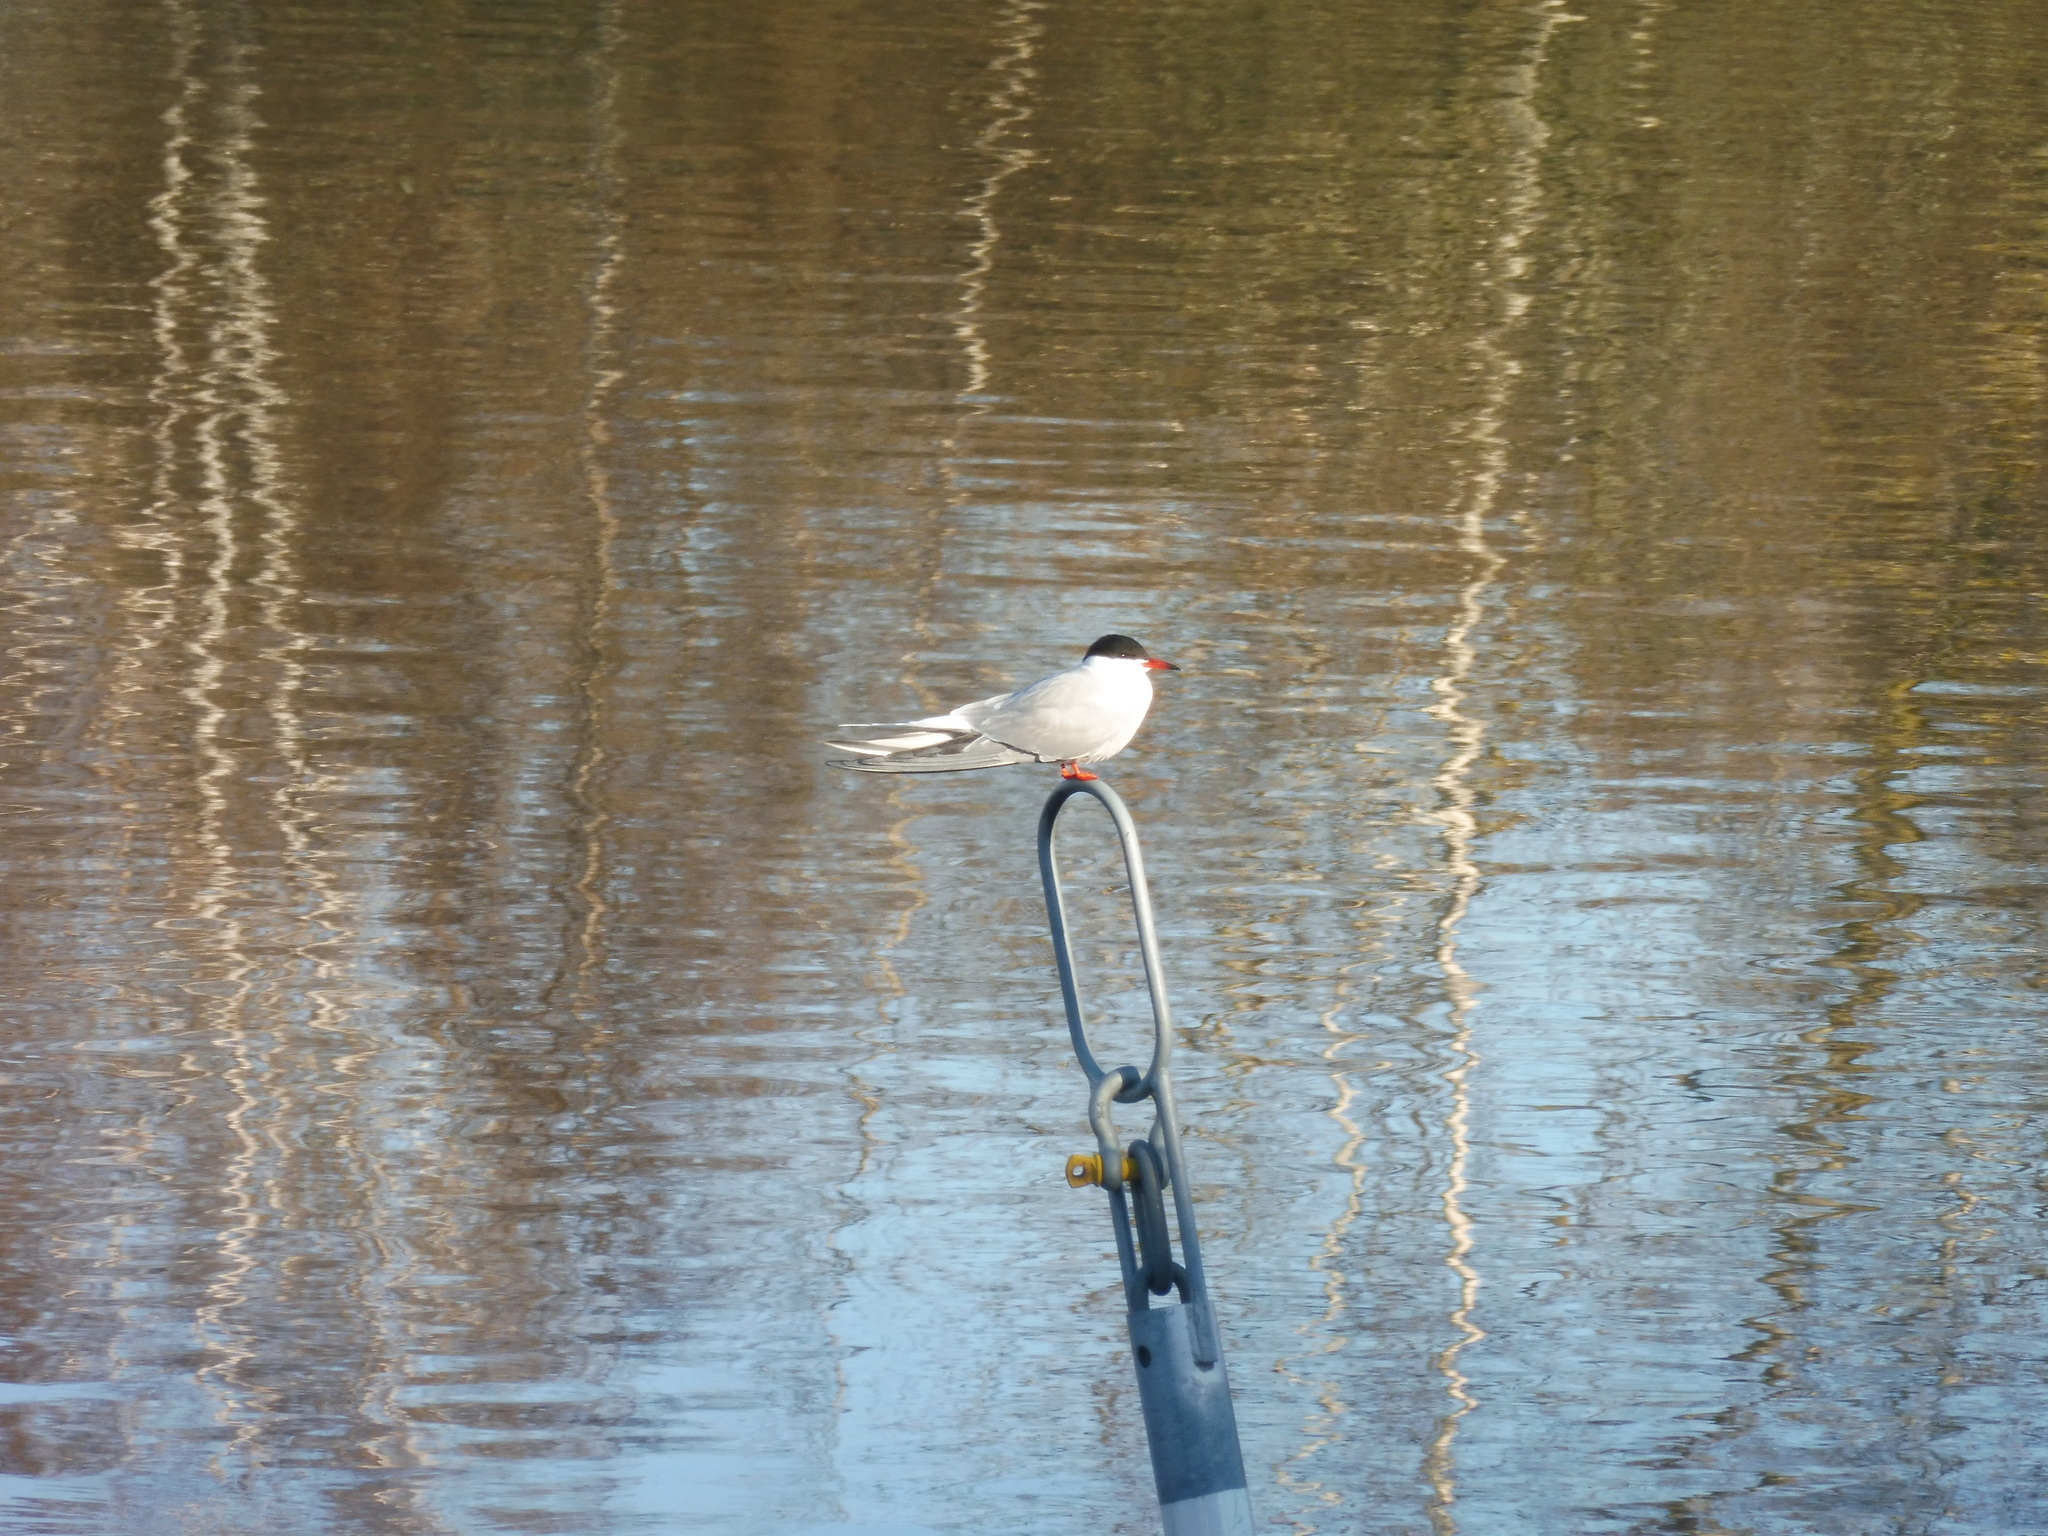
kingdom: Animalia
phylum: Chordata
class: Aves
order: Charadriiformes
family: Laridae
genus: Sterna
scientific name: Sterna hirundo
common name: Common tern
